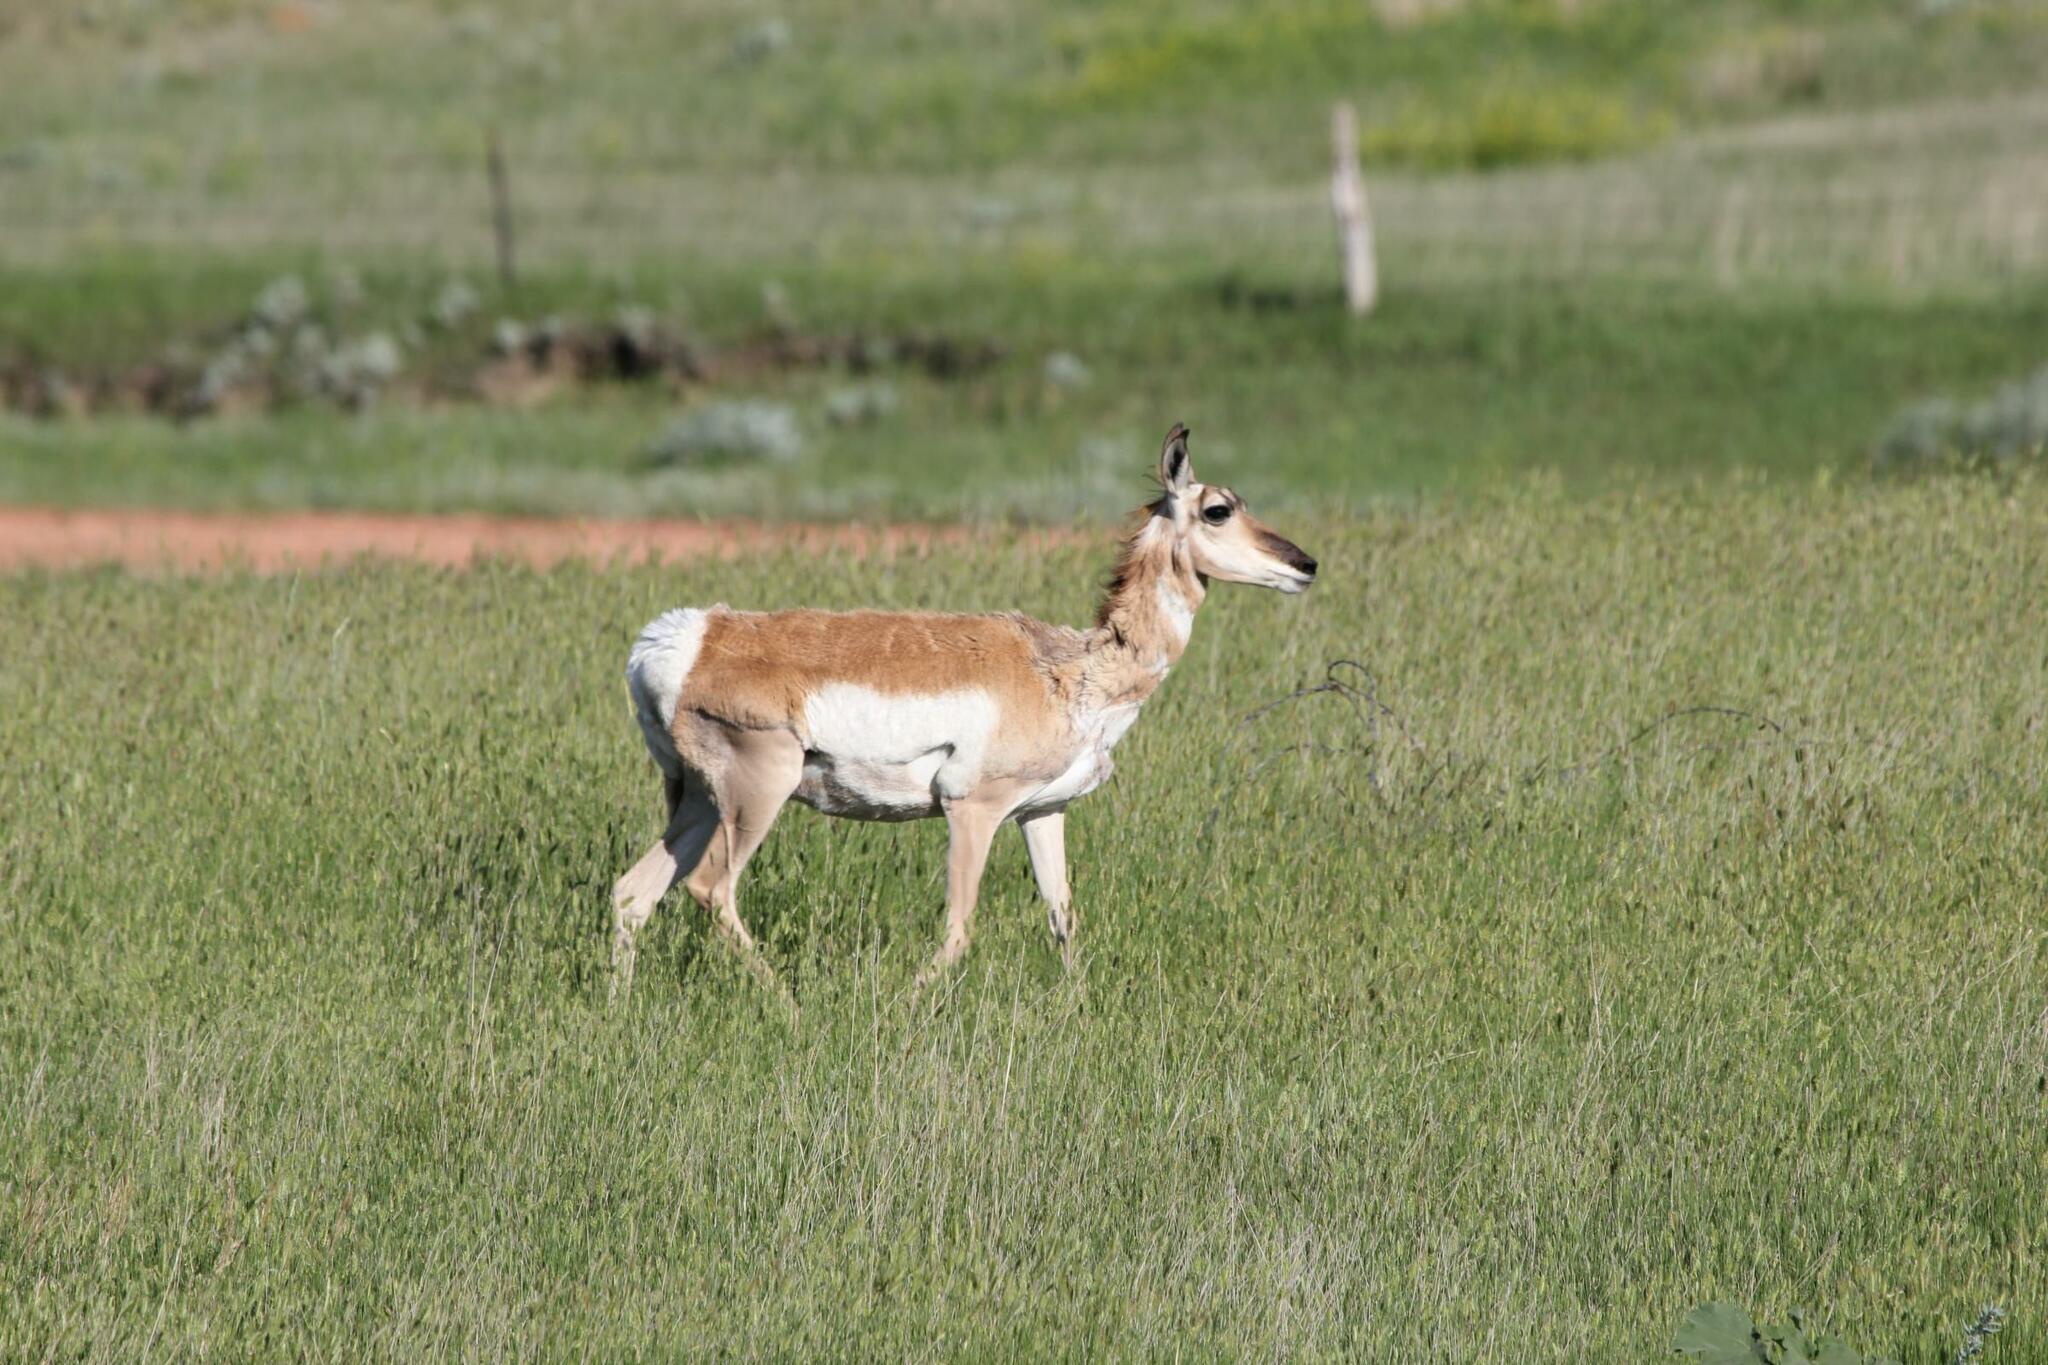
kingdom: Animalia
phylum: Chordata
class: Mammalia
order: Artiodactyla
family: Antilocapridae
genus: Antilocapra
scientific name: Antilocapra americana
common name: Pronghorn
